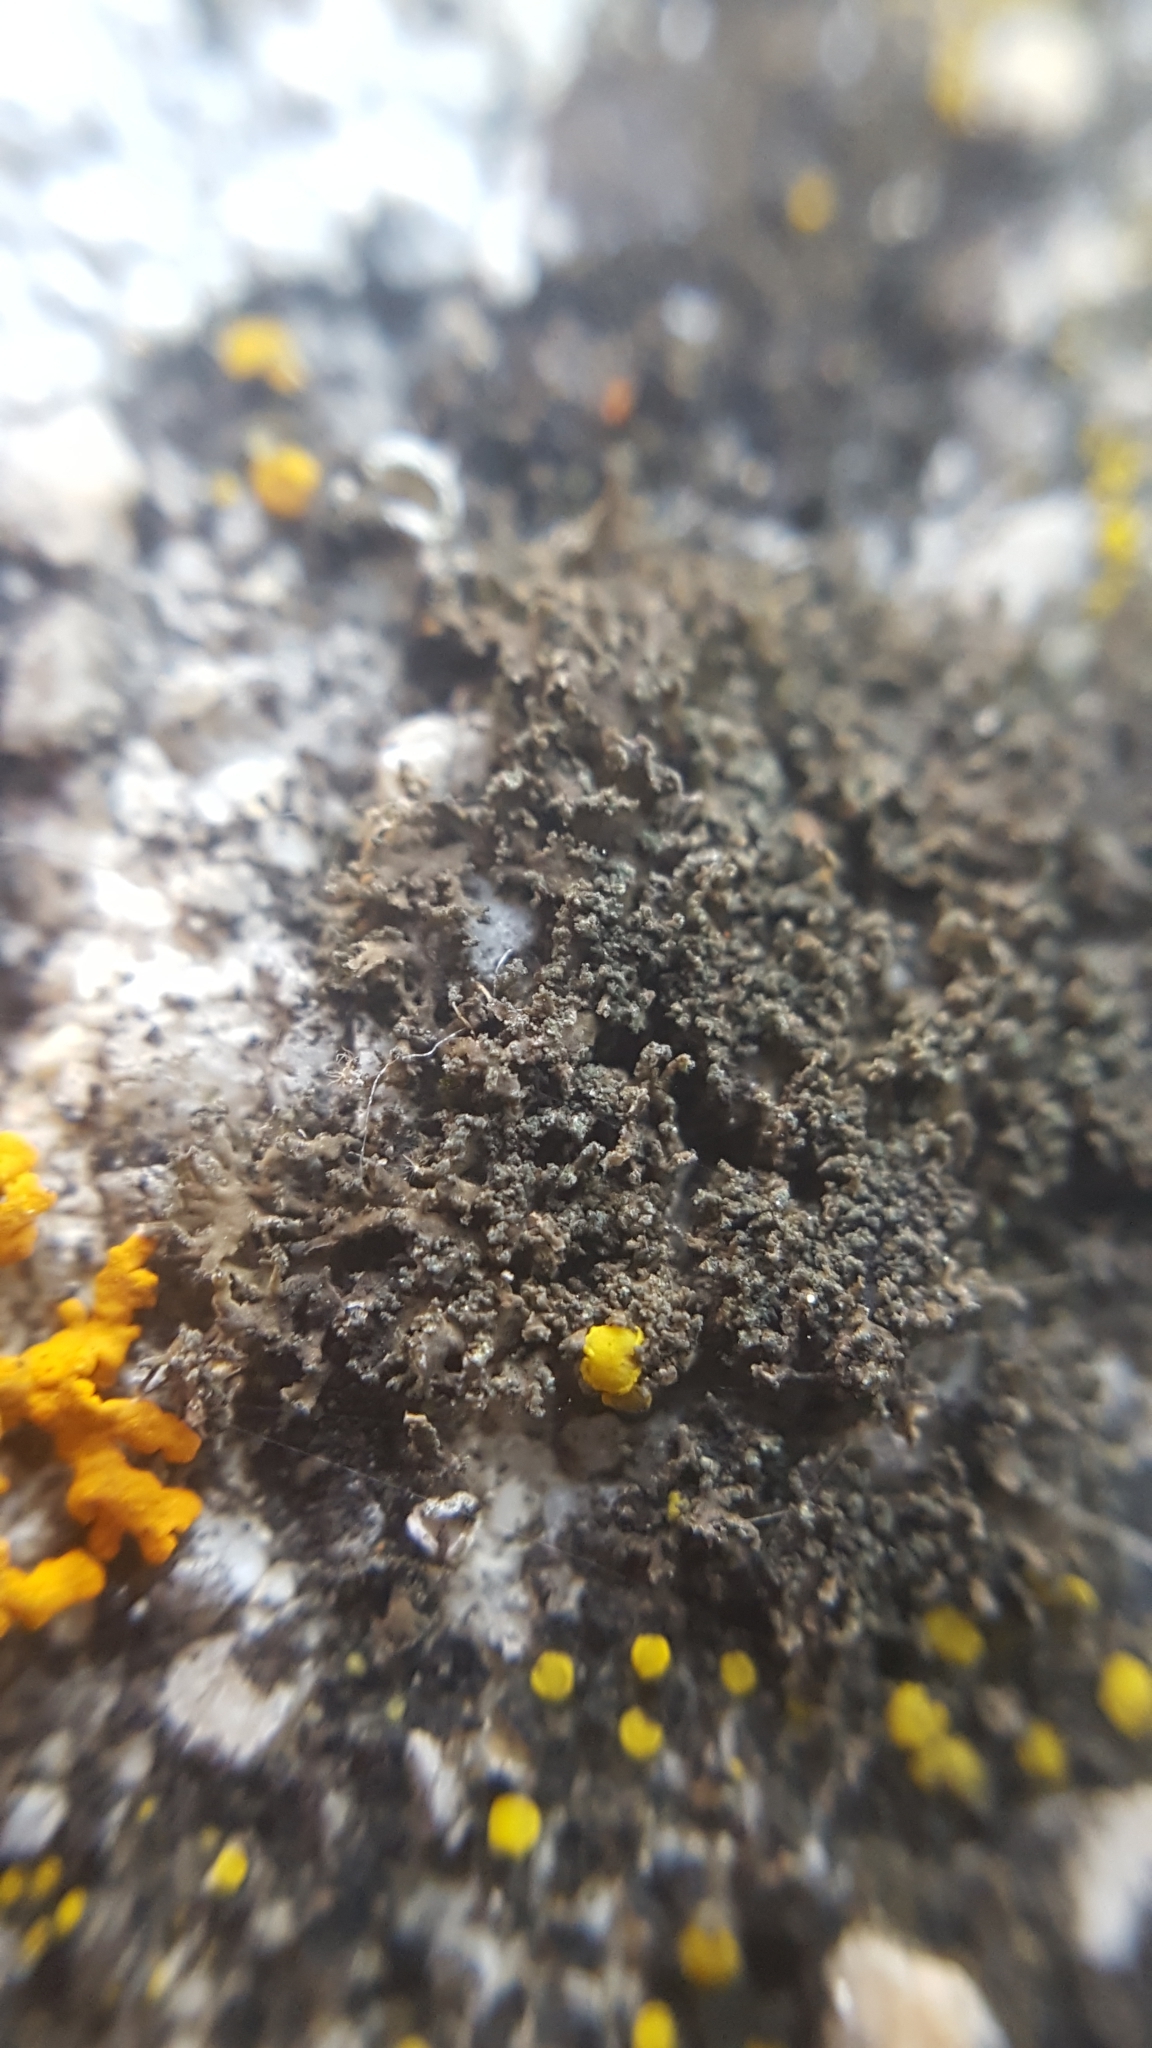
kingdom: Fungi
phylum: Ascomycota
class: Lecanoromycetes
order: Caliciales
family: Physciaceae
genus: Physciella
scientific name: Physciella nigricans
